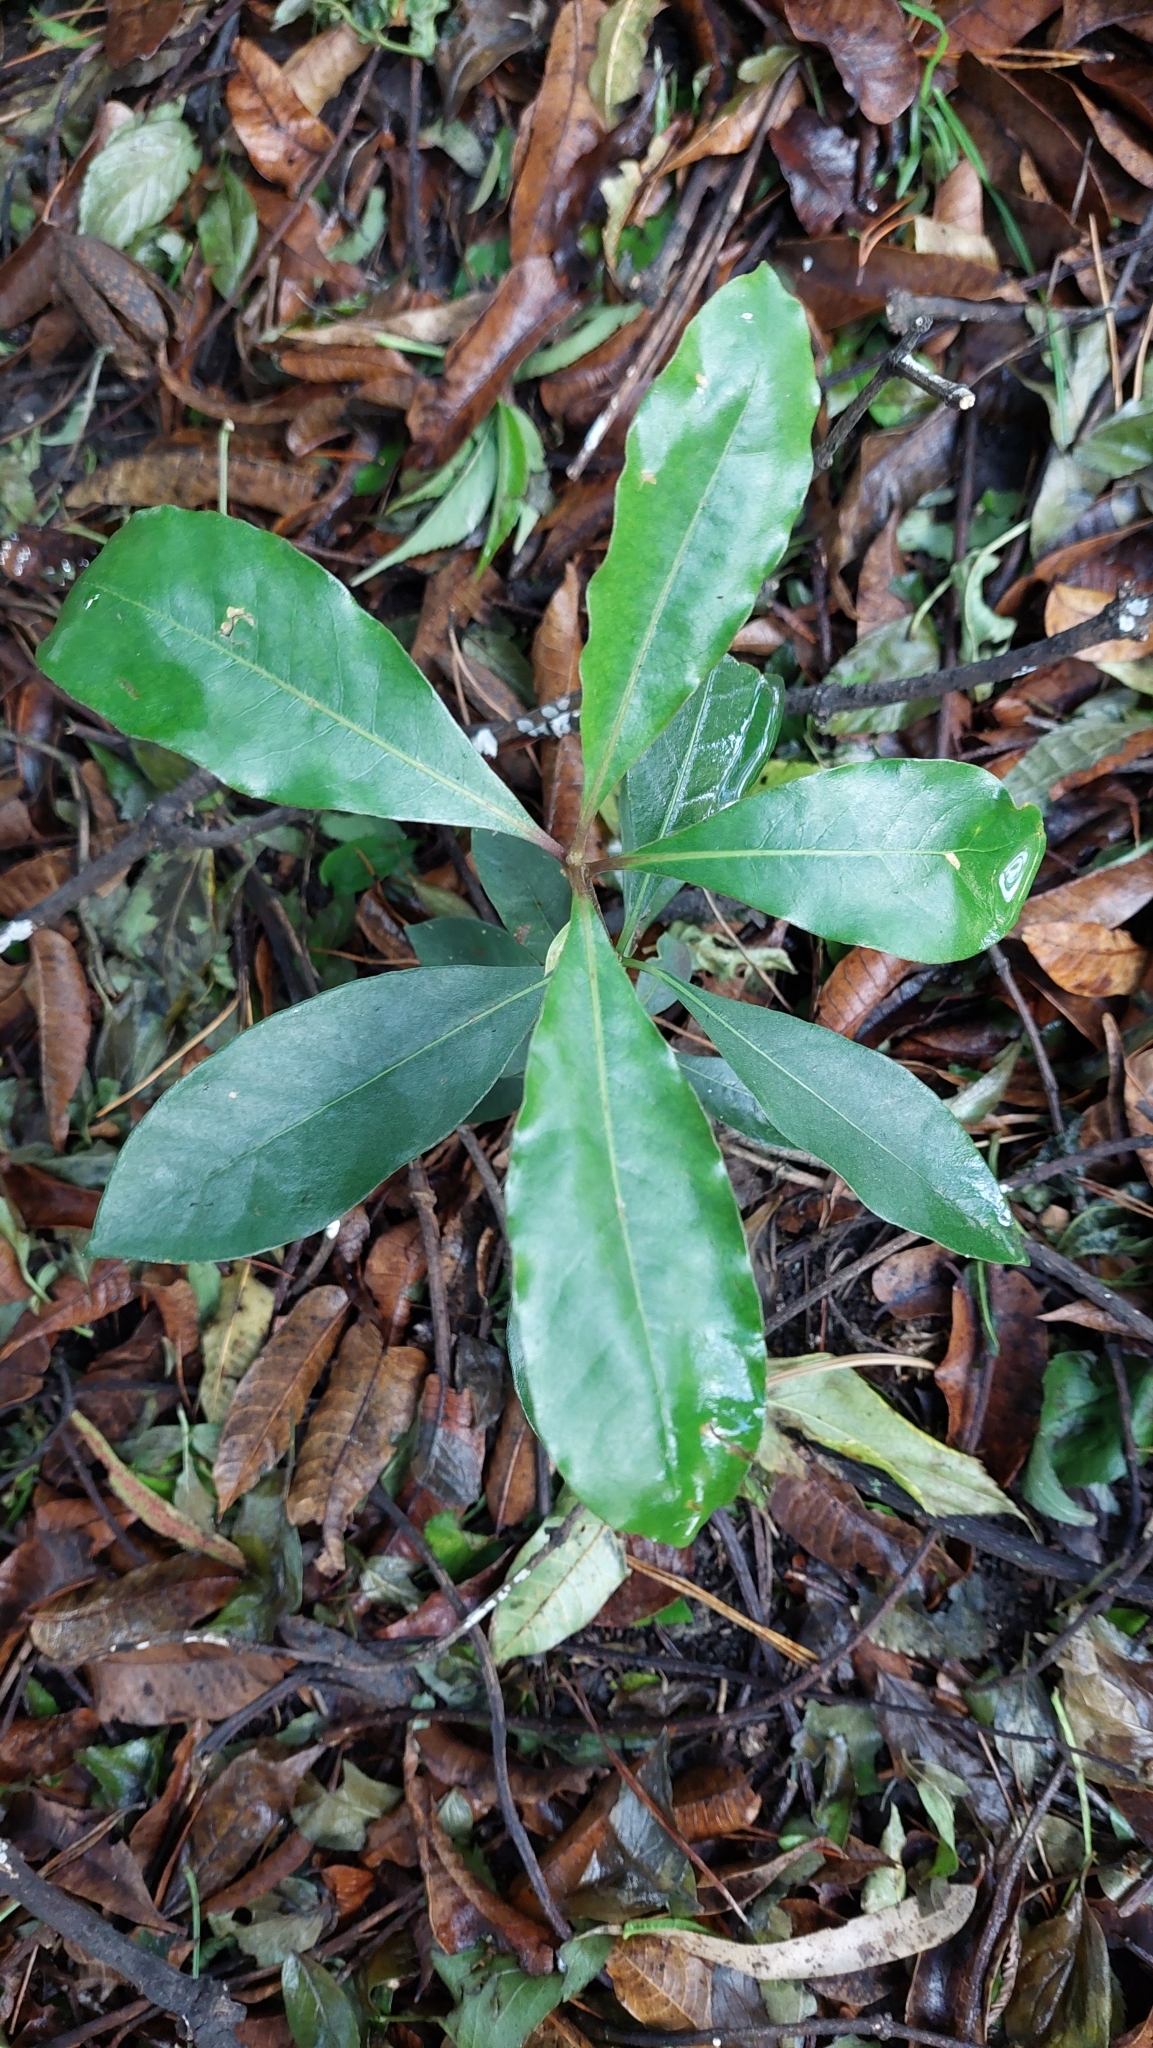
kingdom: Plantae
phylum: Tracheophyta
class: Magnoliopsida
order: Apiales
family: Pittosporaceae
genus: Pittosporum
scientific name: Pittosporum undulatum
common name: Australian cheesewood
